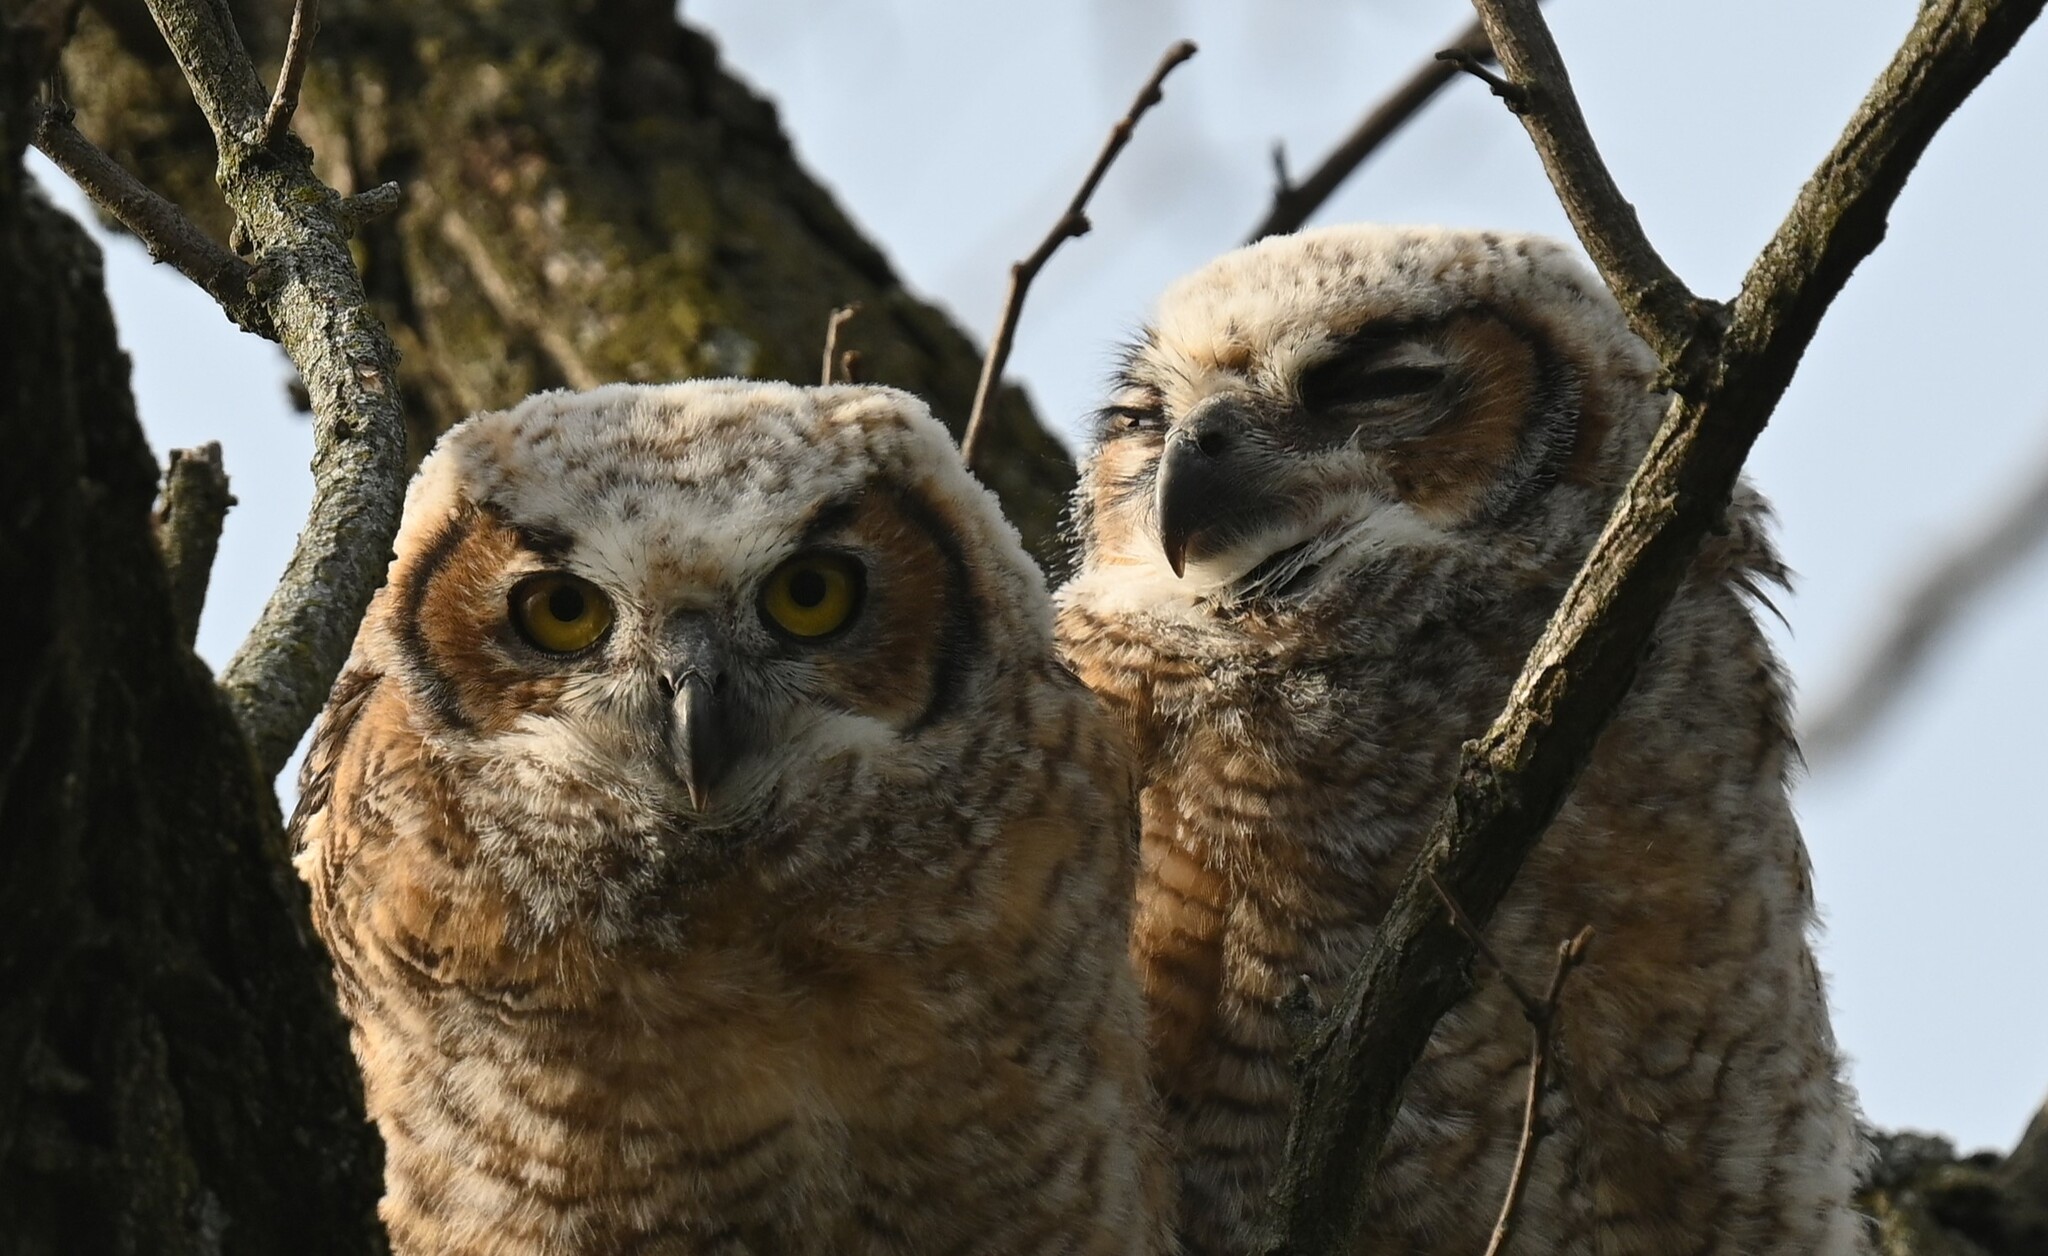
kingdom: Animalia
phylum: Chordata
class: Aves
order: Strigiformes
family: Strigidae
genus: Bubo
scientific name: Bubo virginianus
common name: Great horned owl
